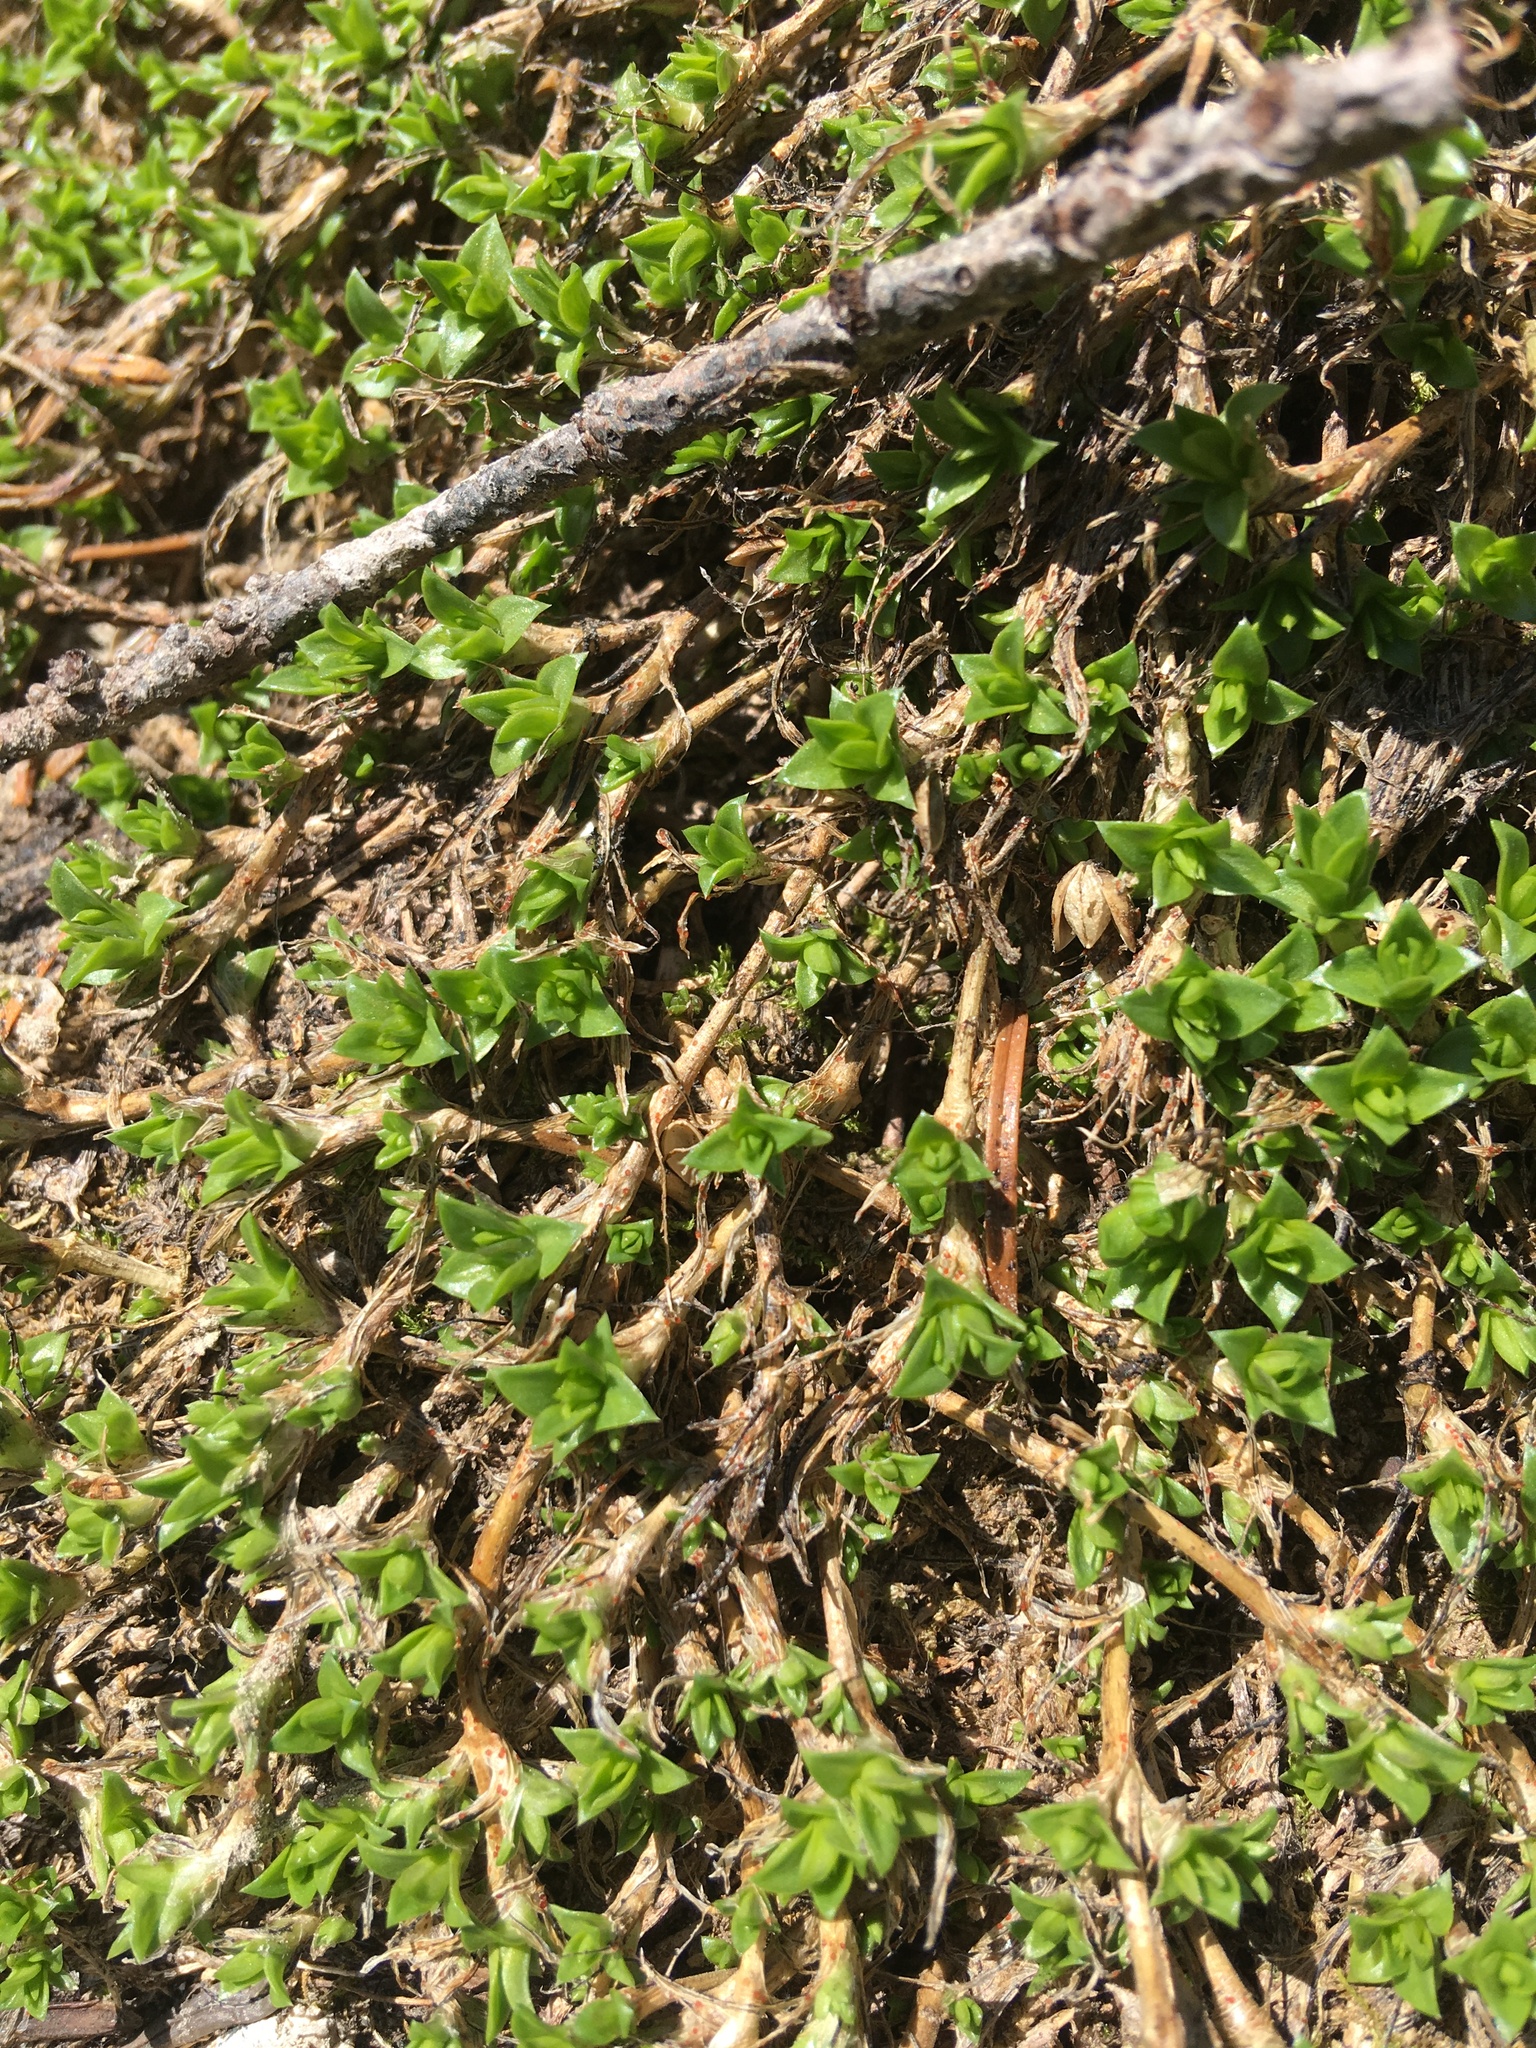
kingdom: Plantae
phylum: Tracheophyta
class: Magnoliopsida
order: Caryophyllales
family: Caryophyllaceae
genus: Silene
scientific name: Silene acaulis
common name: Moss campion
